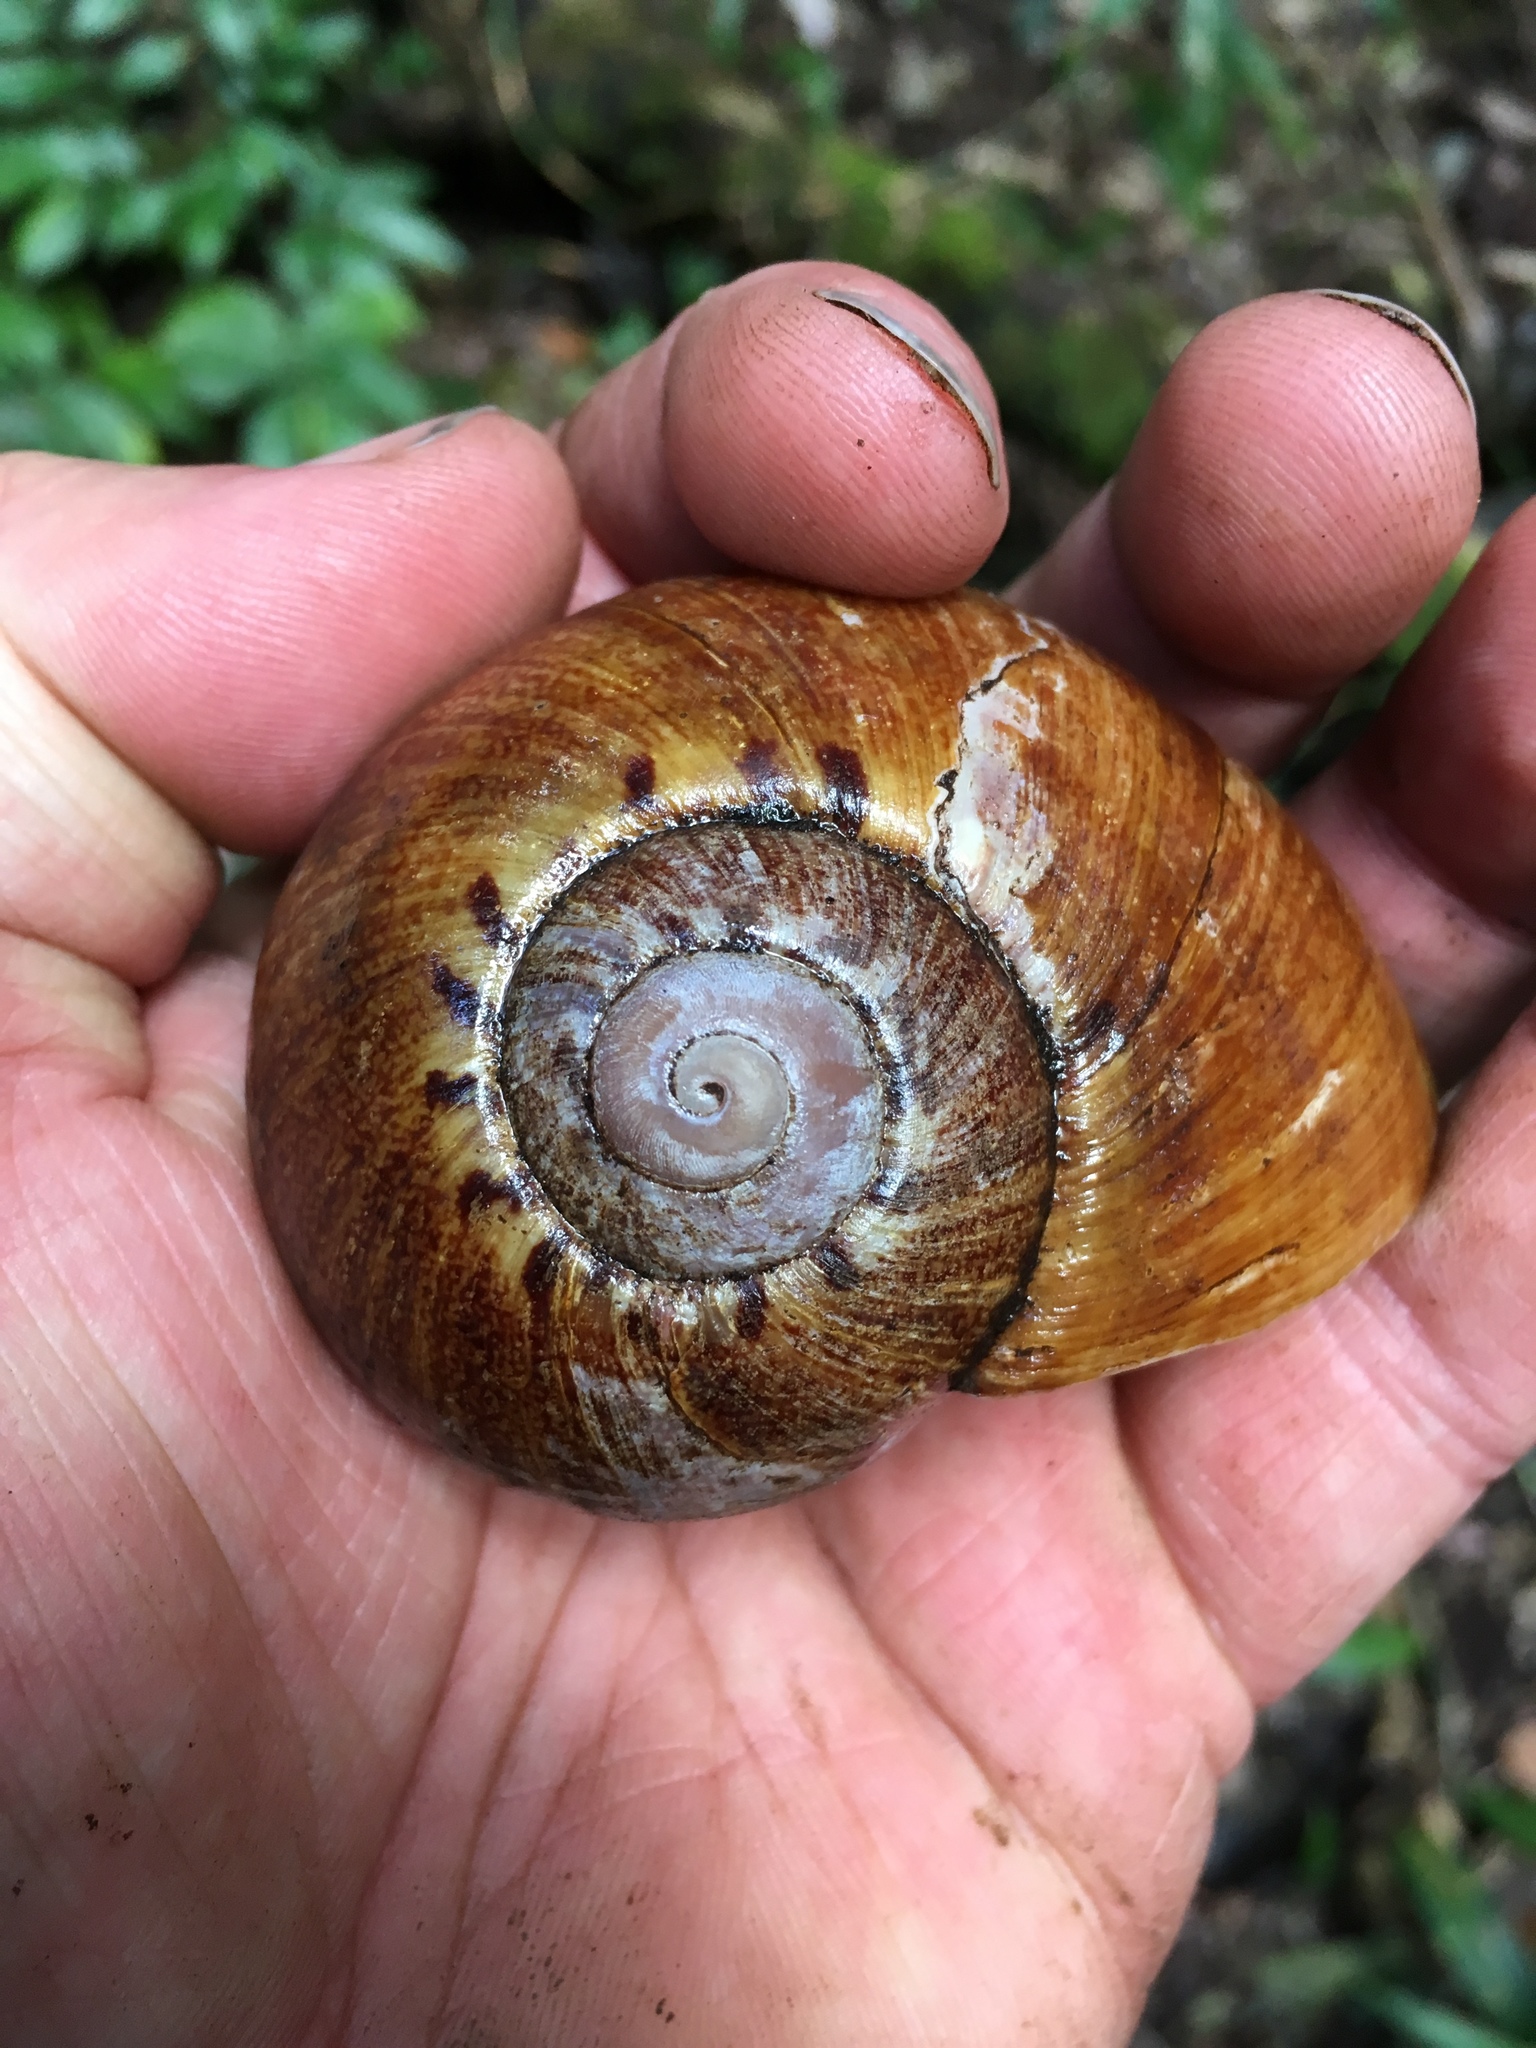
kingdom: Animalia
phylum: Mollusca
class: Gastropoda
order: Stylommatophora
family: Caryodidae
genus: Hedleyella
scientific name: Hedleyella falconeri
